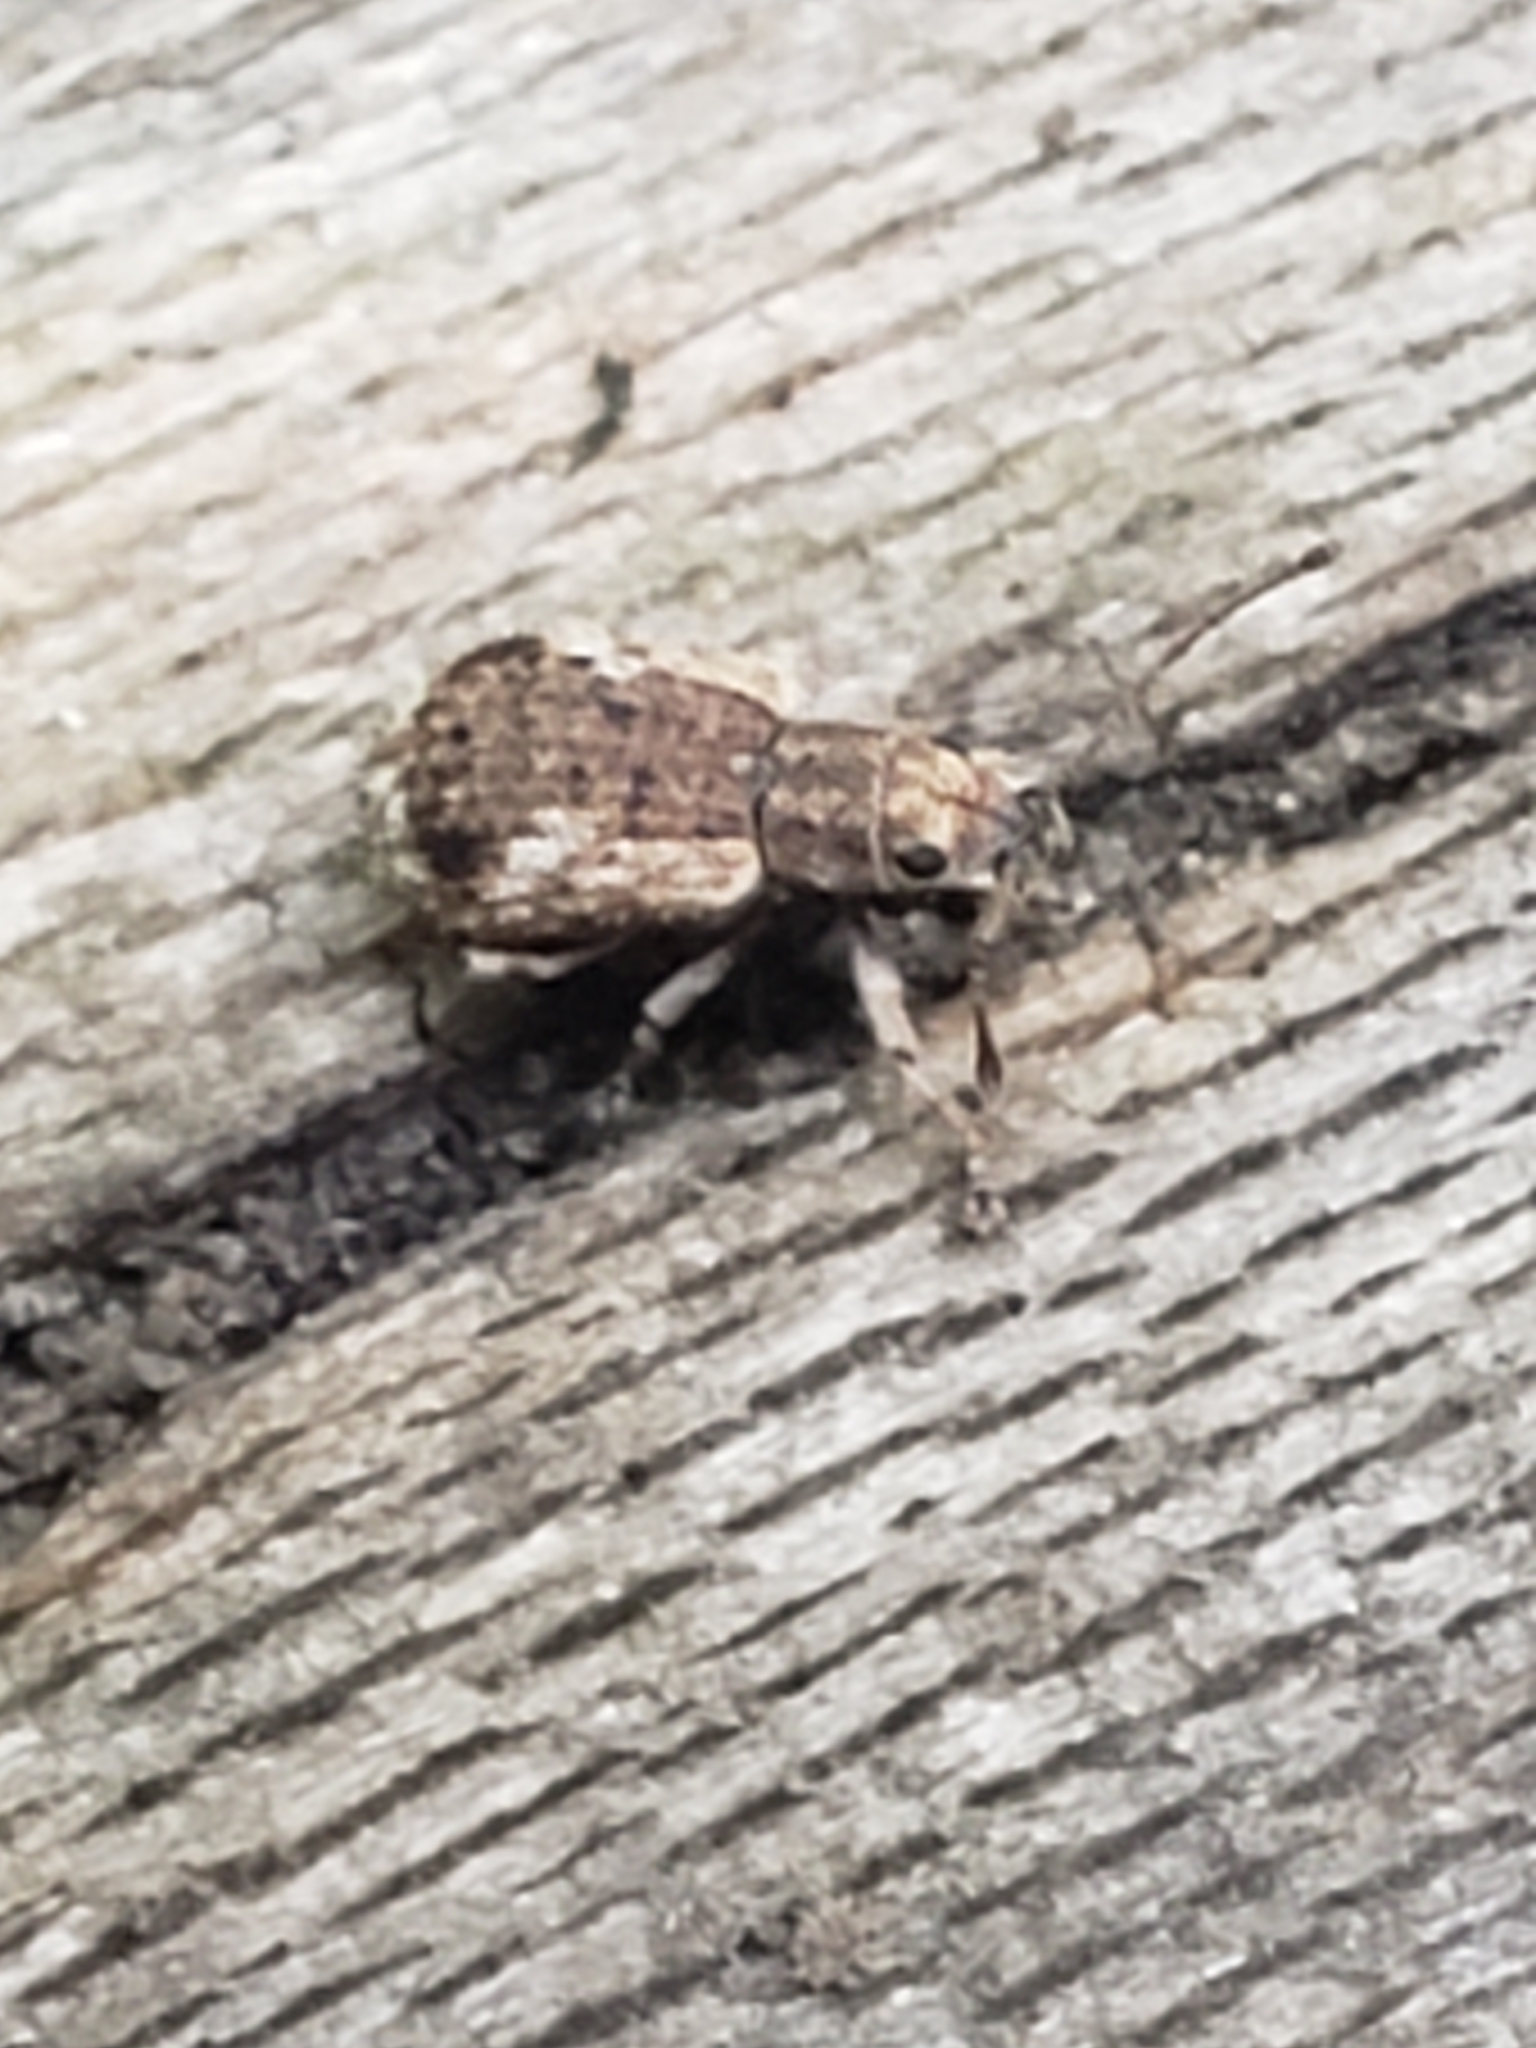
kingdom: Animalia
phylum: Arthropoda
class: Insecta
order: Coleoptera
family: Curculionidae
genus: Pseudoedophrys
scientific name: Pseudoedophrys hilleri
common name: Weevil
